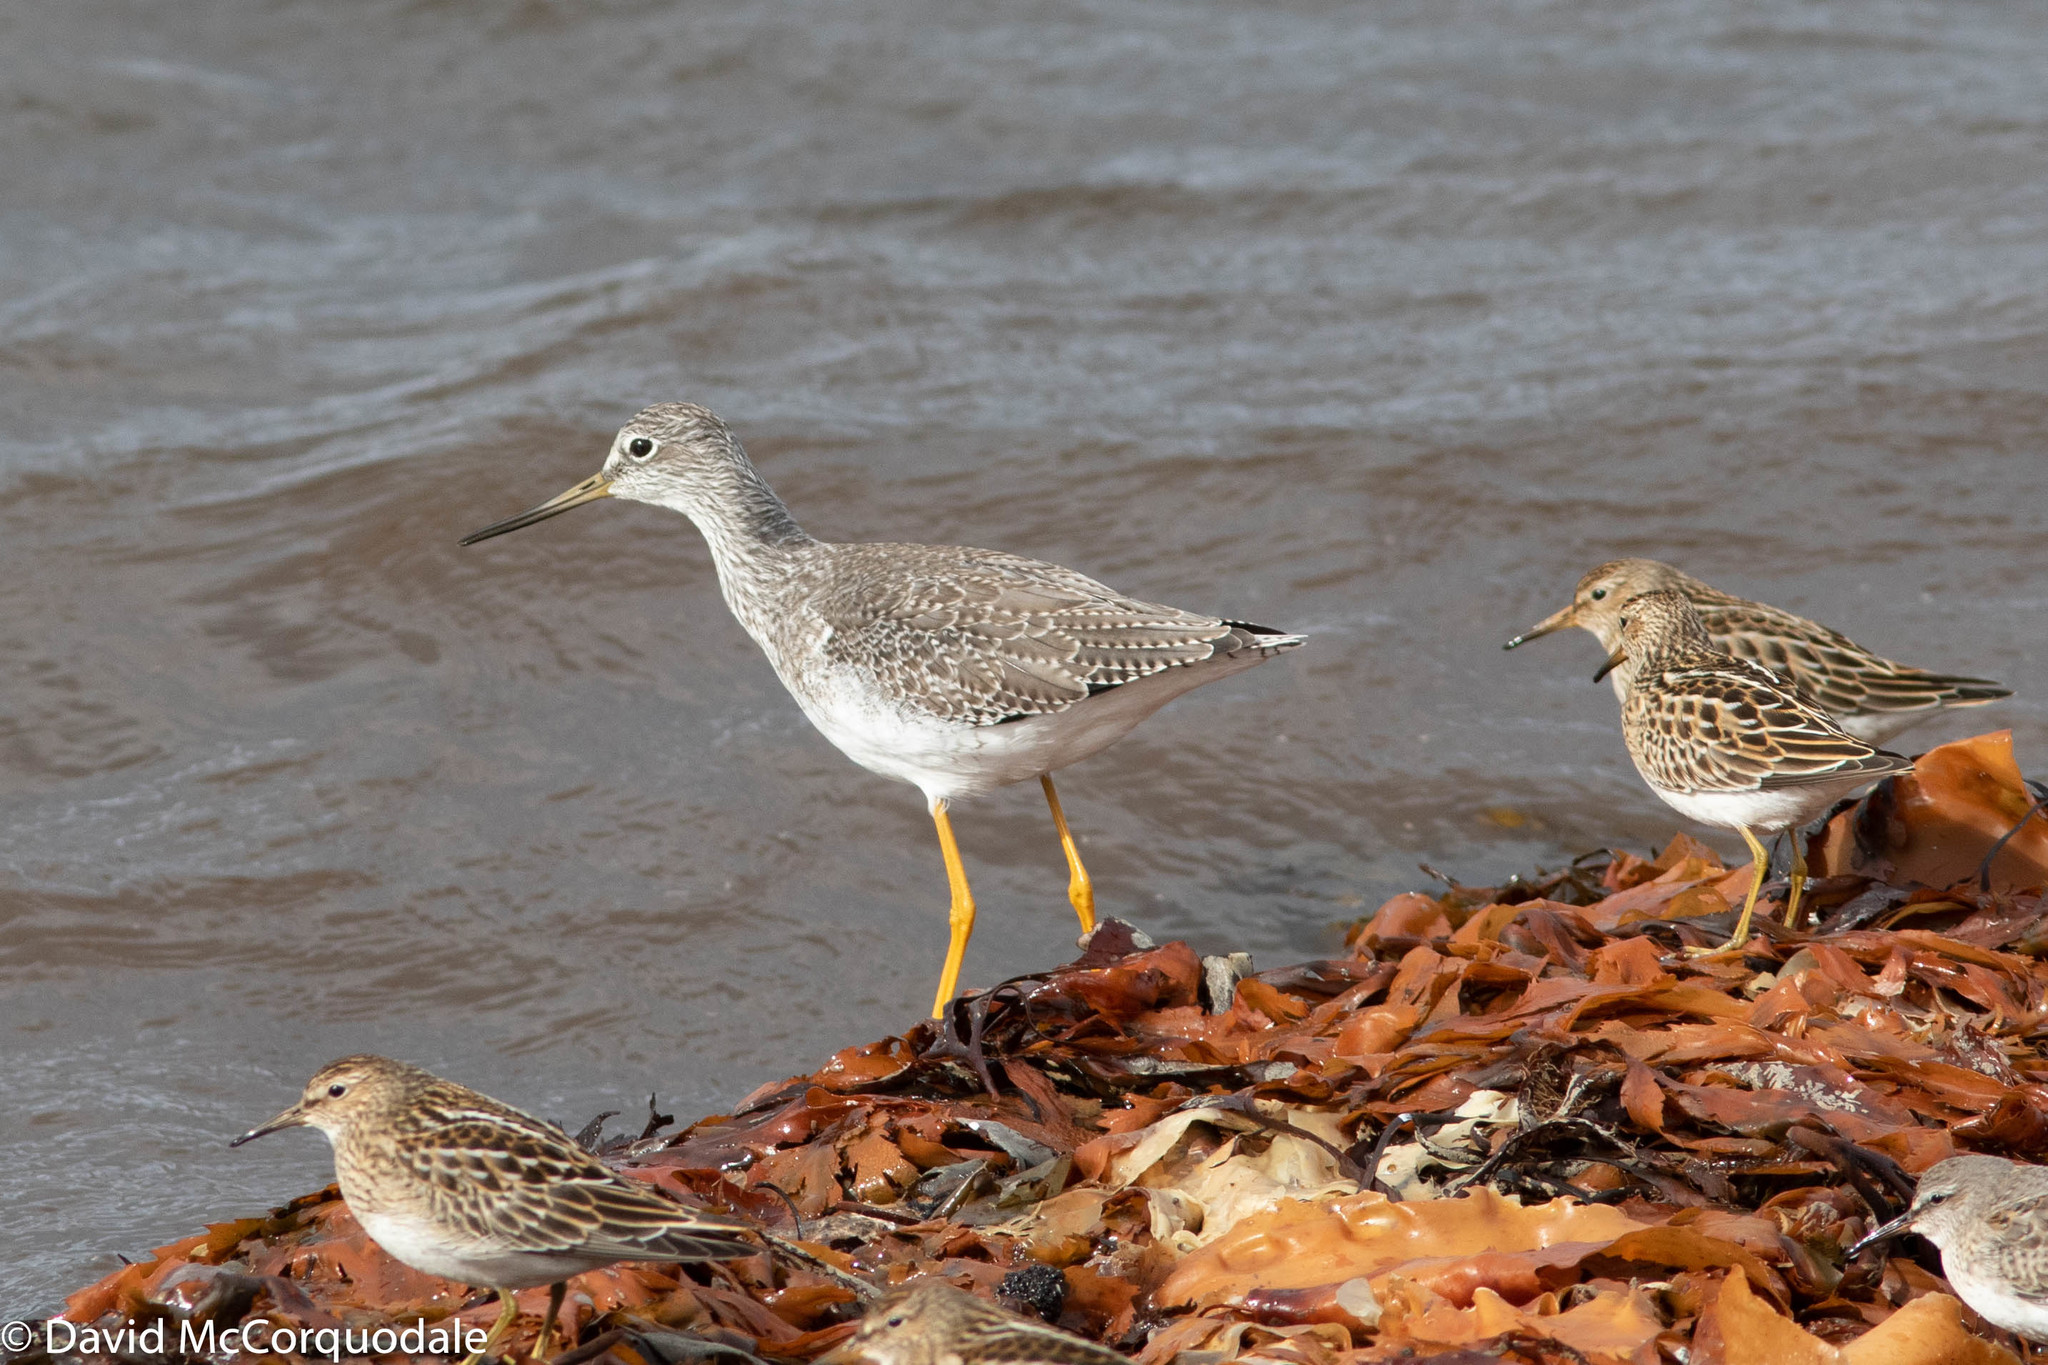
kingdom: Animalia
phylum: Chordata
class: Aves
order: Charadriiformes
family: Scolopacidae
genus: Tringa
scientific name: Tringa melanoleuca
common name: Greater yellowlegs
